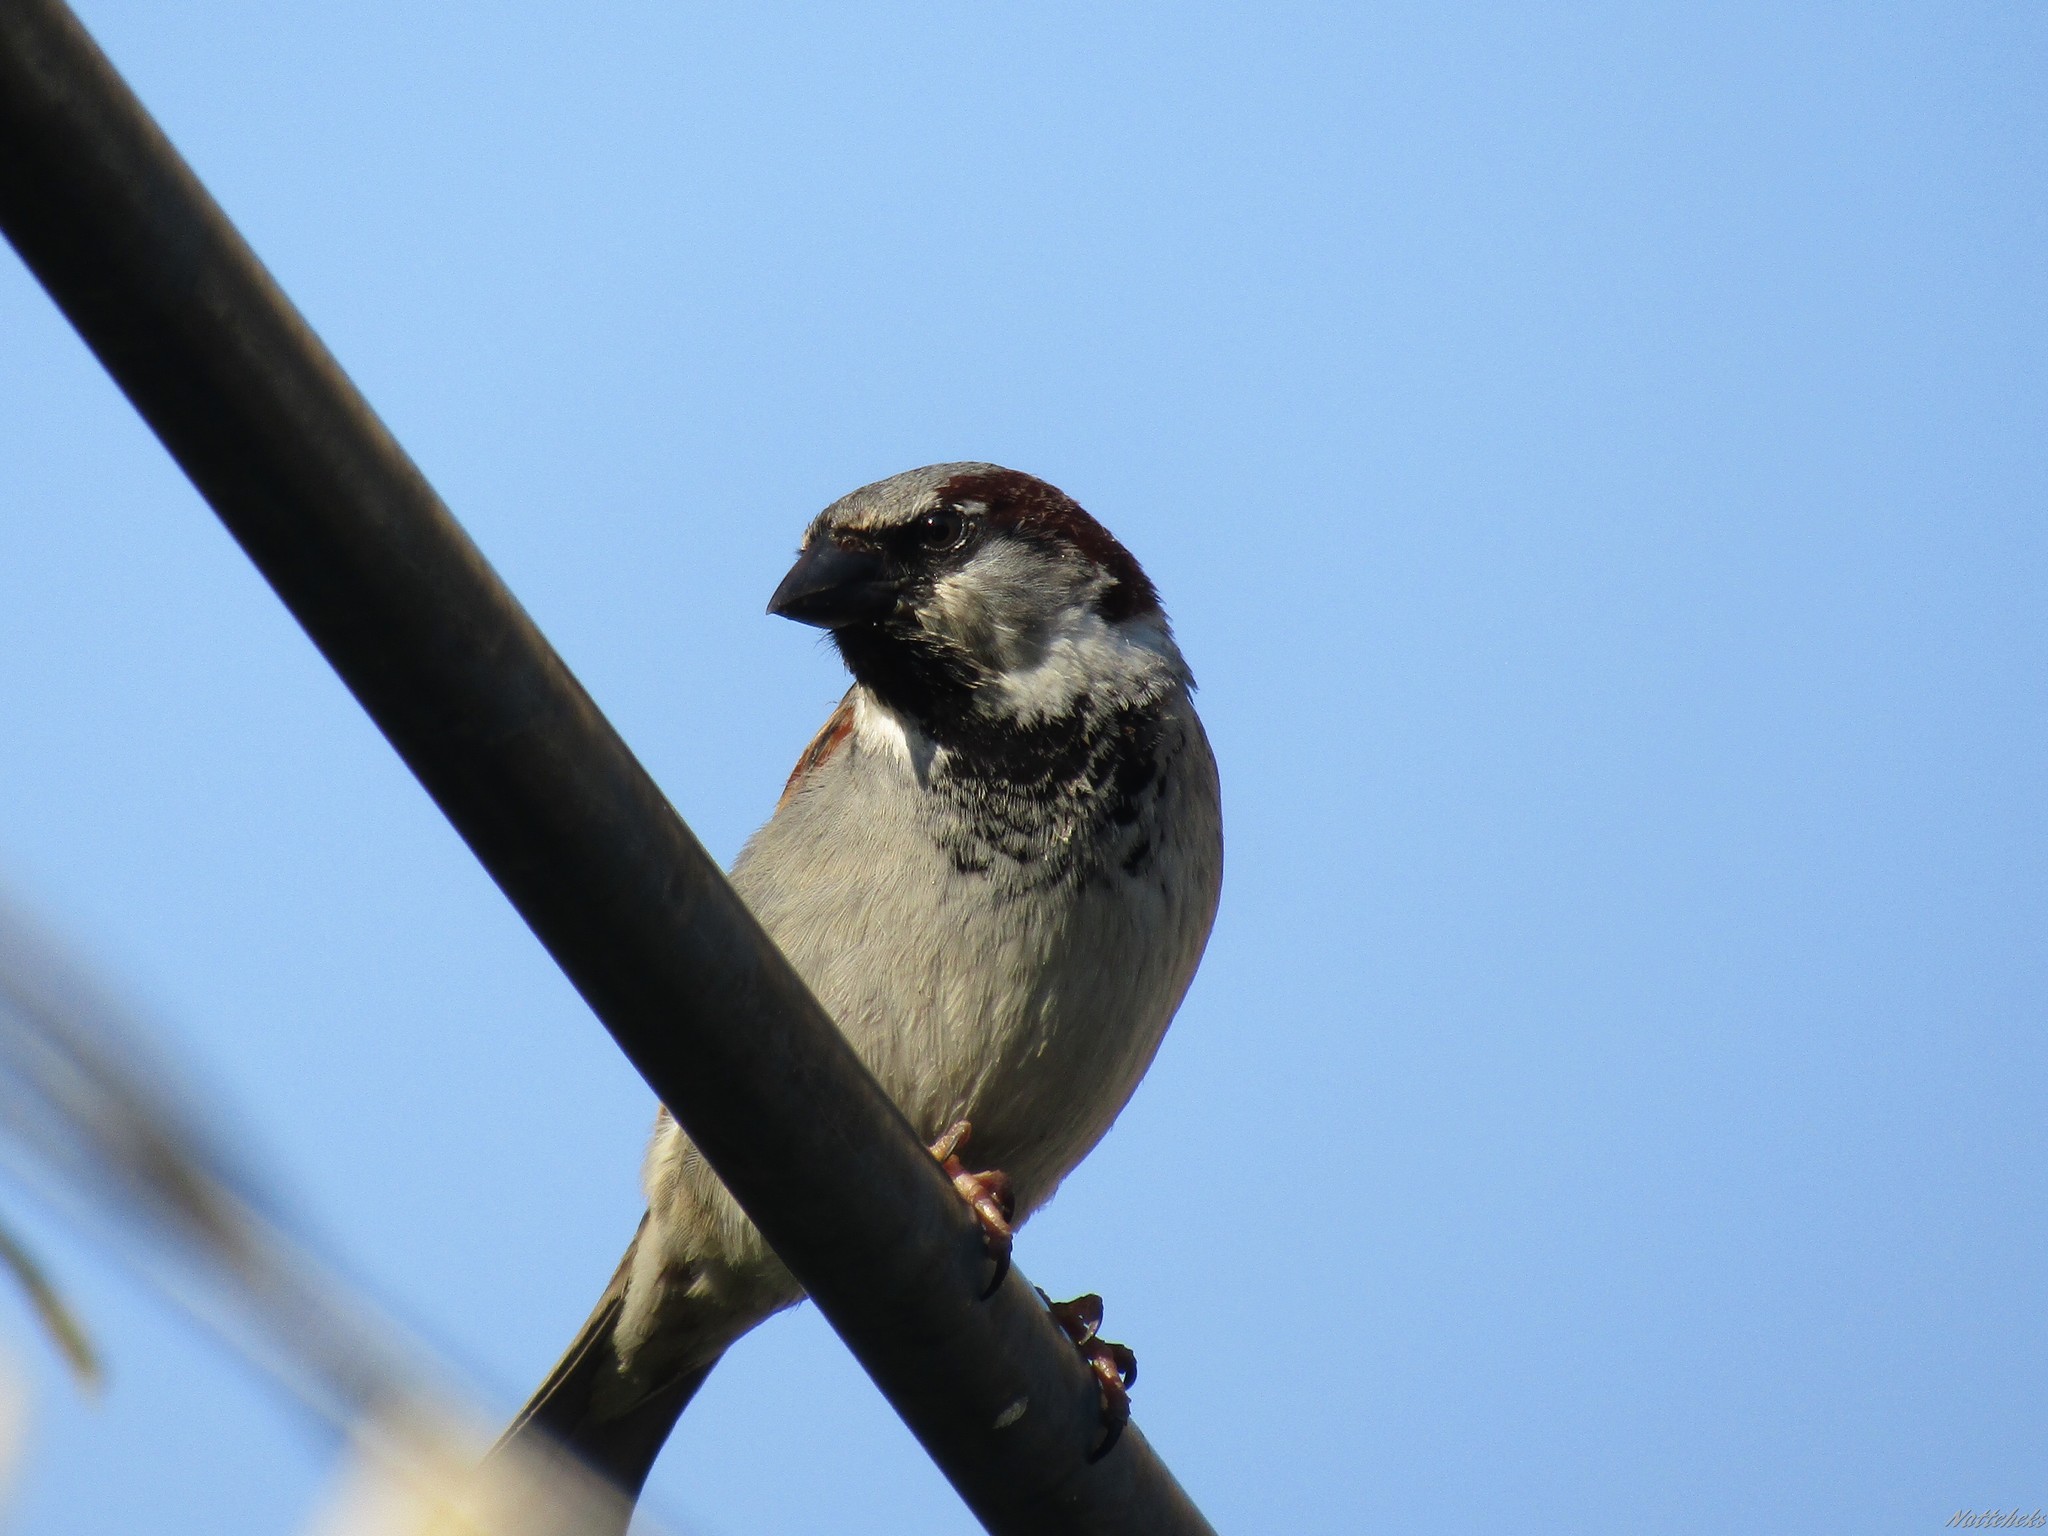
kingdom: Animalia
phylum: Chordata
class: Aves
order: Passeriformes
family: Passeridae
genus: Passer
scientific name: Passer montanus
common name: Eurasian tree sparrow
